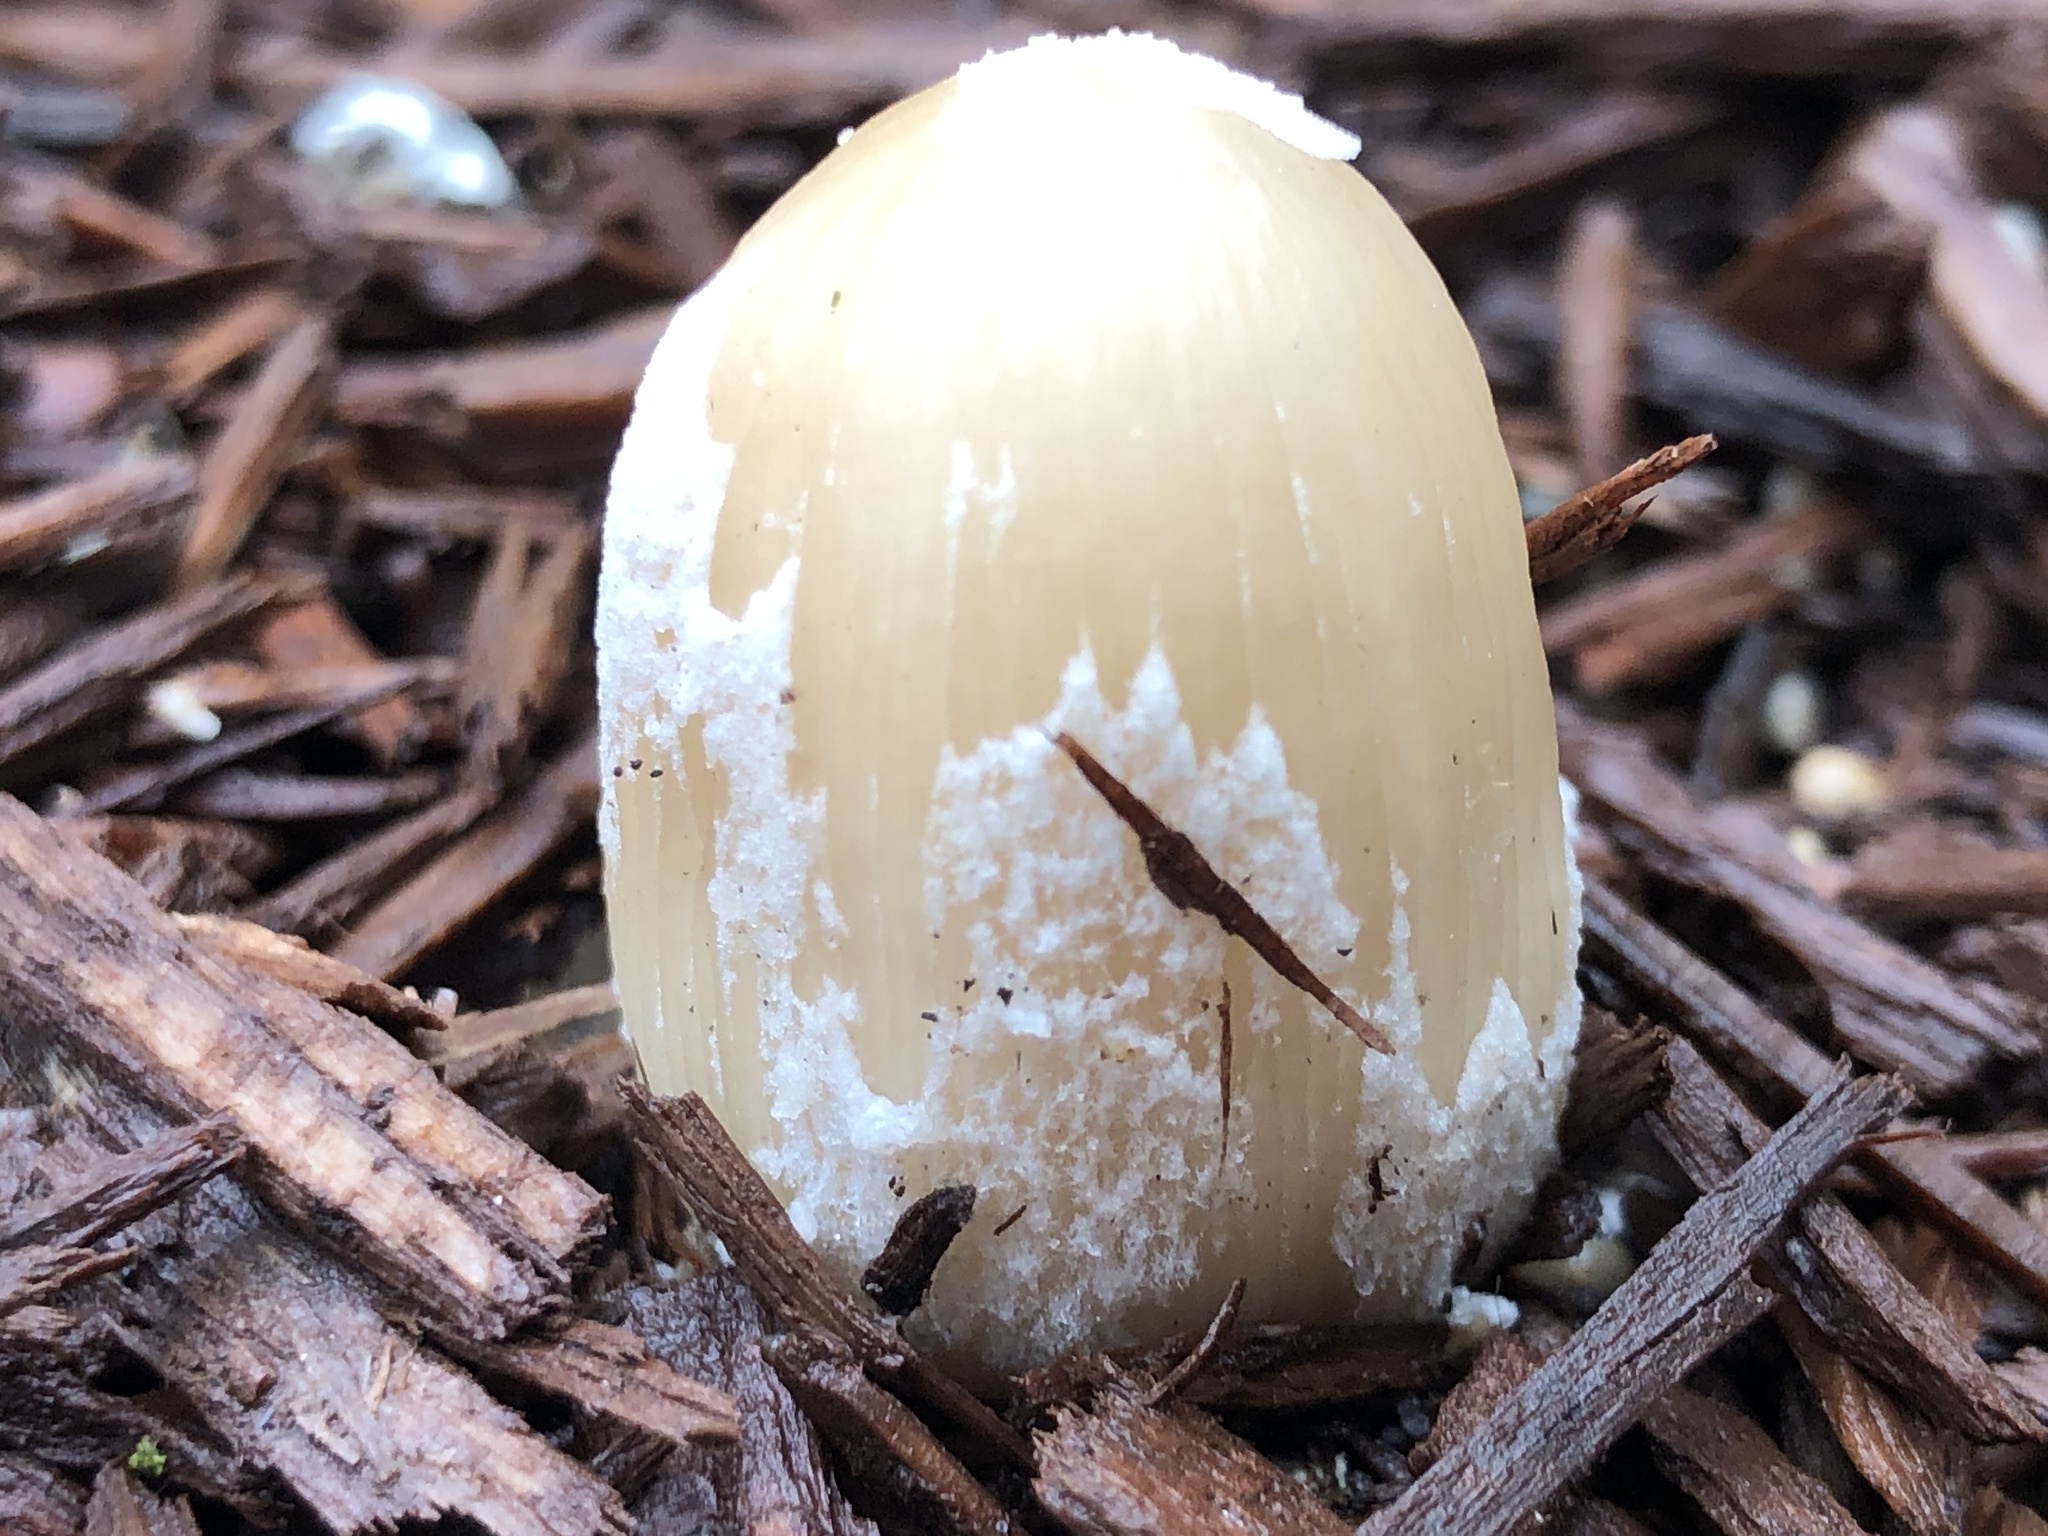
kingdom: Fungi
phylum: Basidiomycota
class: Agaricomycetes
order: Agaricales
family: Psathyrellaceae
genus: Coprinellus
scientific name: Coprinellus flocculosus
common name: Flocculose inkcap
